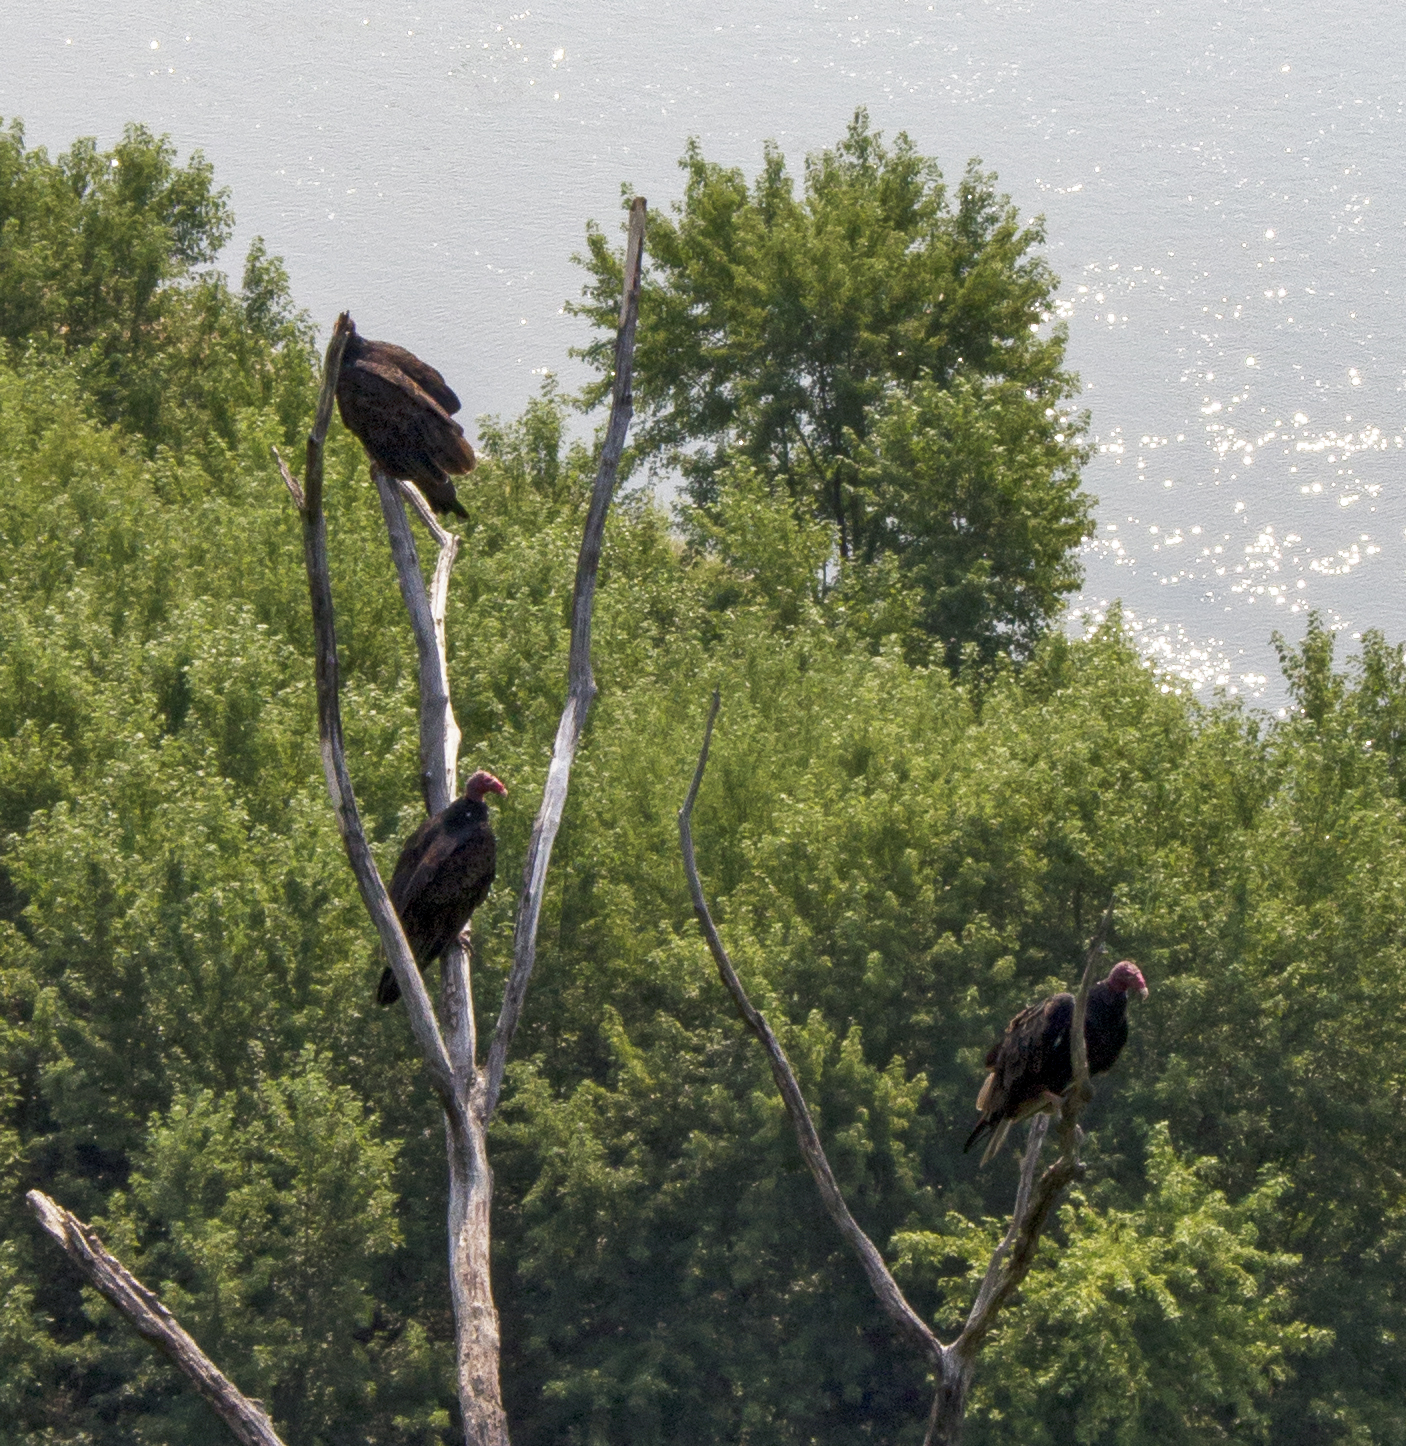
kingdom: Animalia
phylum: Chordata
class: Aves
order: Accipitriformes
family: Cathartidae
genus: Cathartes
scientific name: Cathartes aura
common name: Turkey vulture
